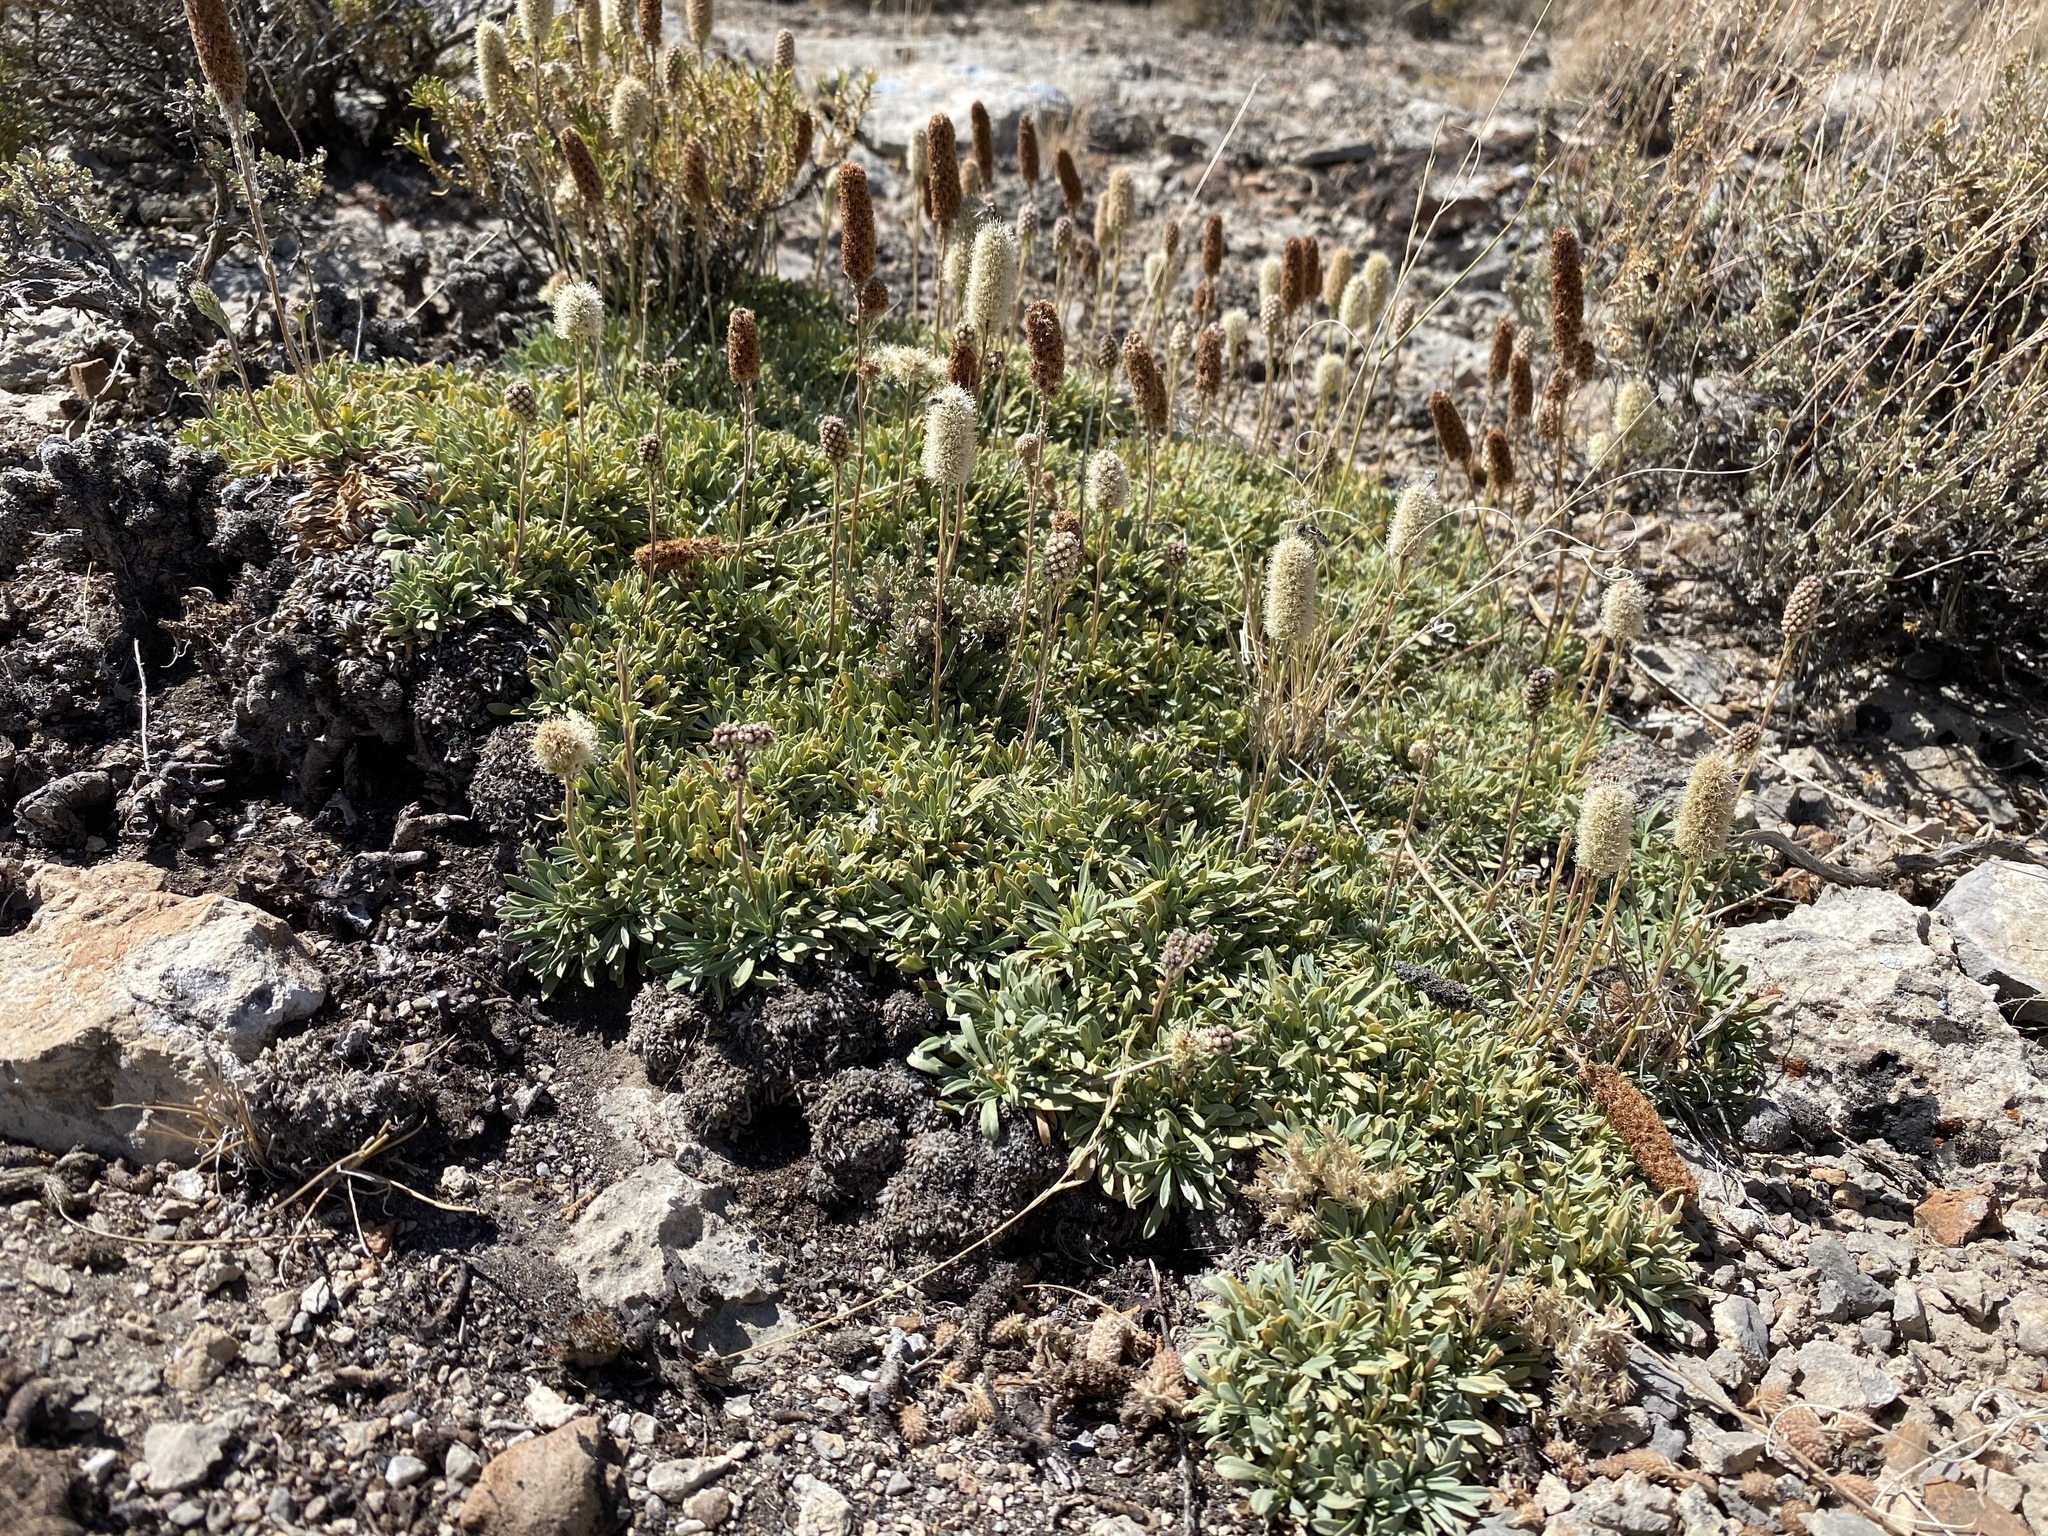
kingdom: Plantae
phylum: Tracheophyta
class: Magnoliopsida
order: Rosales
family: Rosaceae
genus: Petrophytum
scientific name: Petrophytum caespitosum
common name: Mat rockspirea
